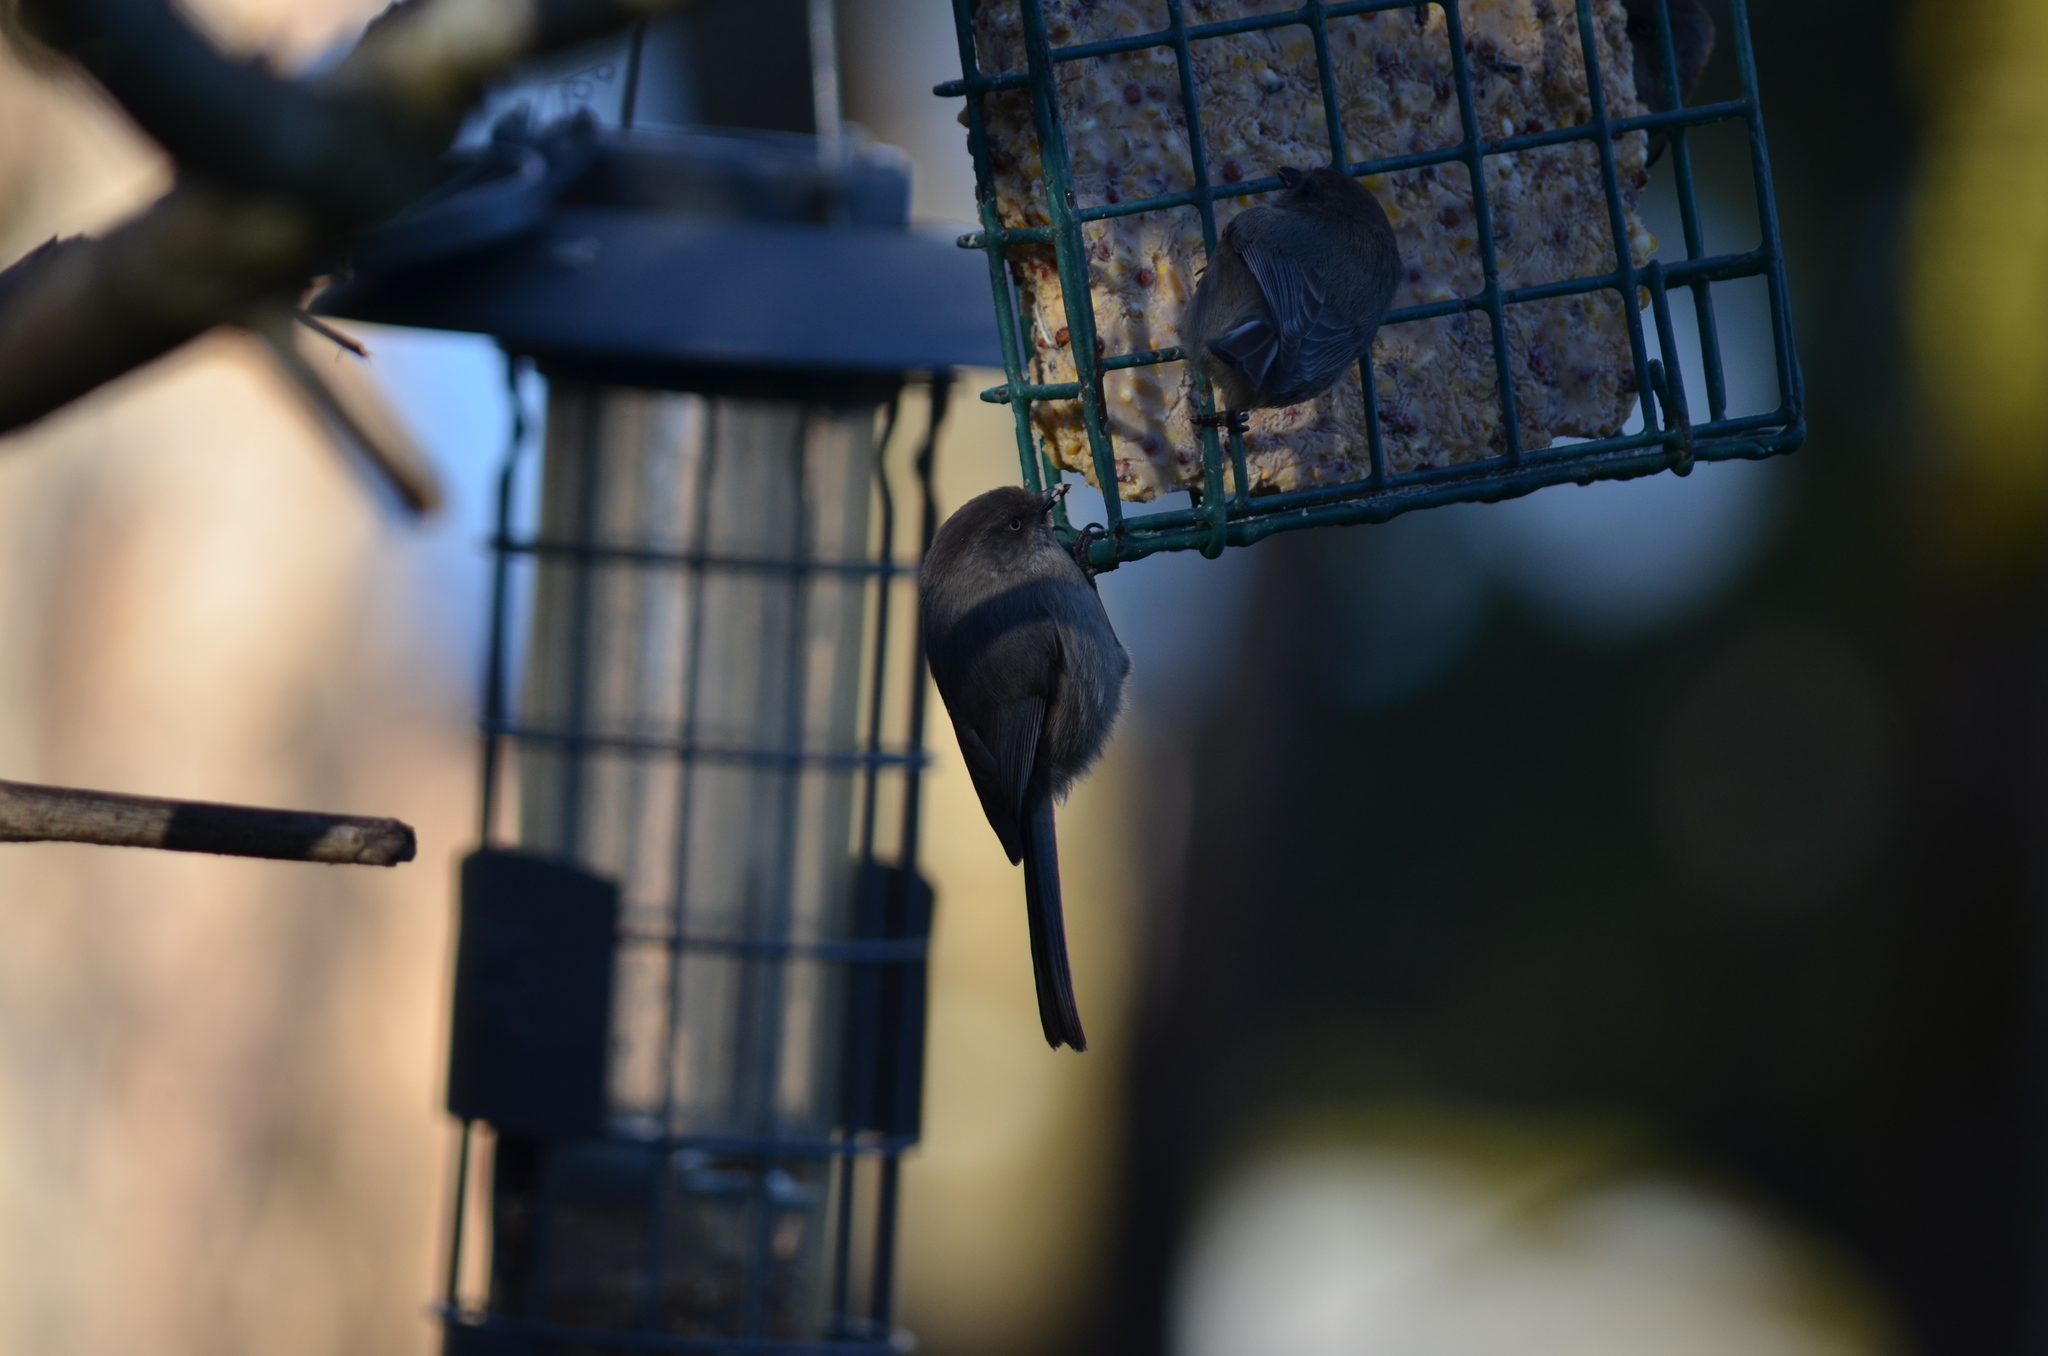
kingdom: Animalia
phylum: Chordata
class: Aves
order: Passeriformes
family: Aegithalidae
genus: Psaltriparus
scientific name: Psaltriparus minimus
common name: American bushtit
